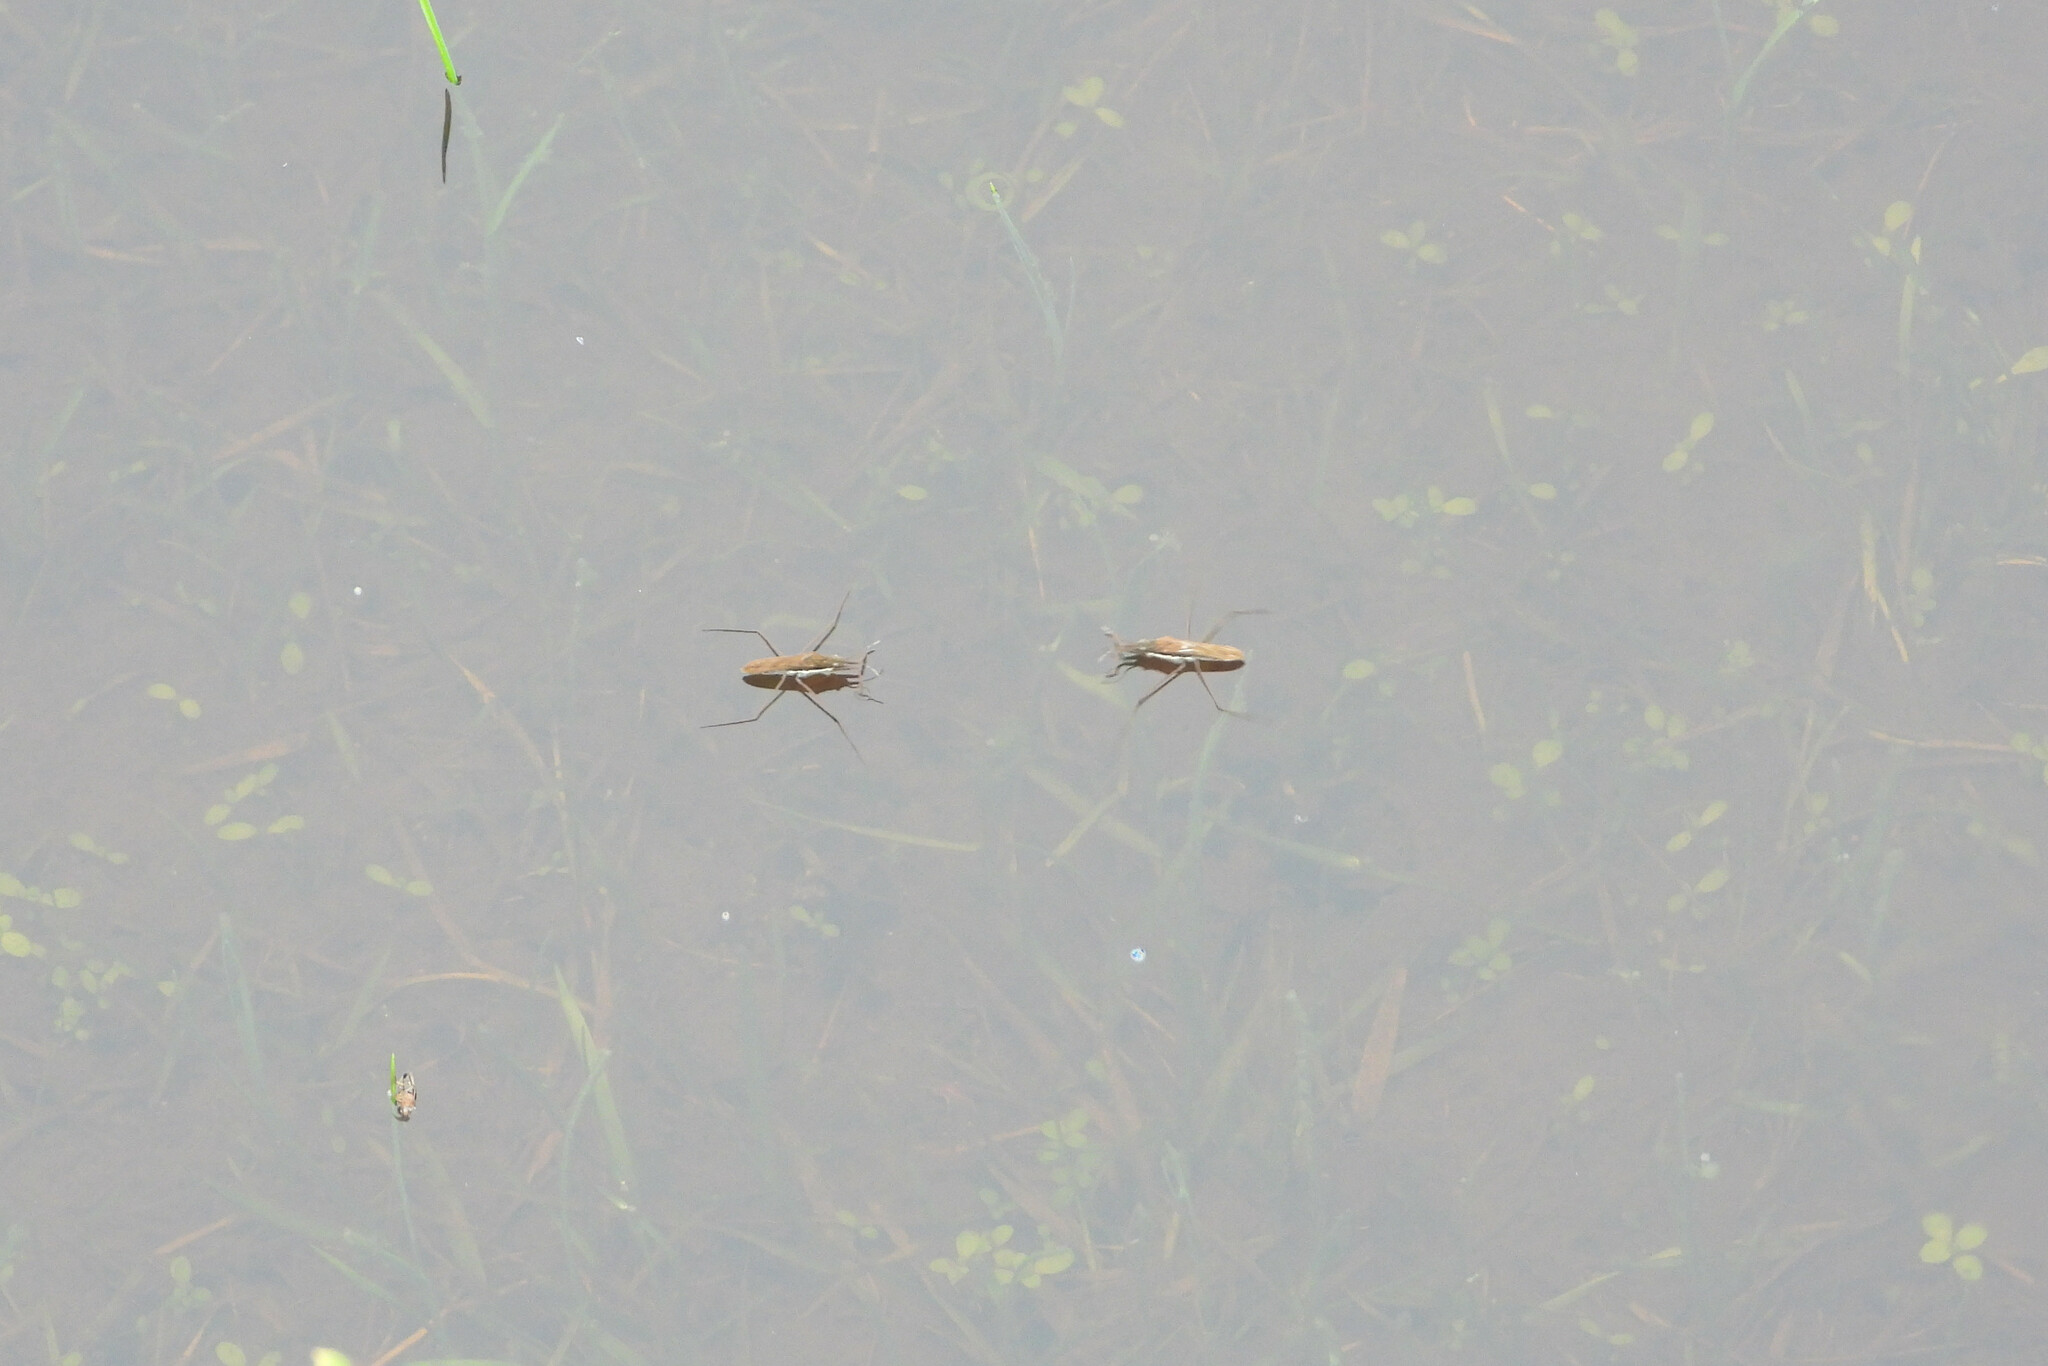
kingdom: Animalia
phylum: Arthropoda
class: Insecta
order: Hemiptera
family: Gerridae
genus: Gerris
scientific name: Gerris
